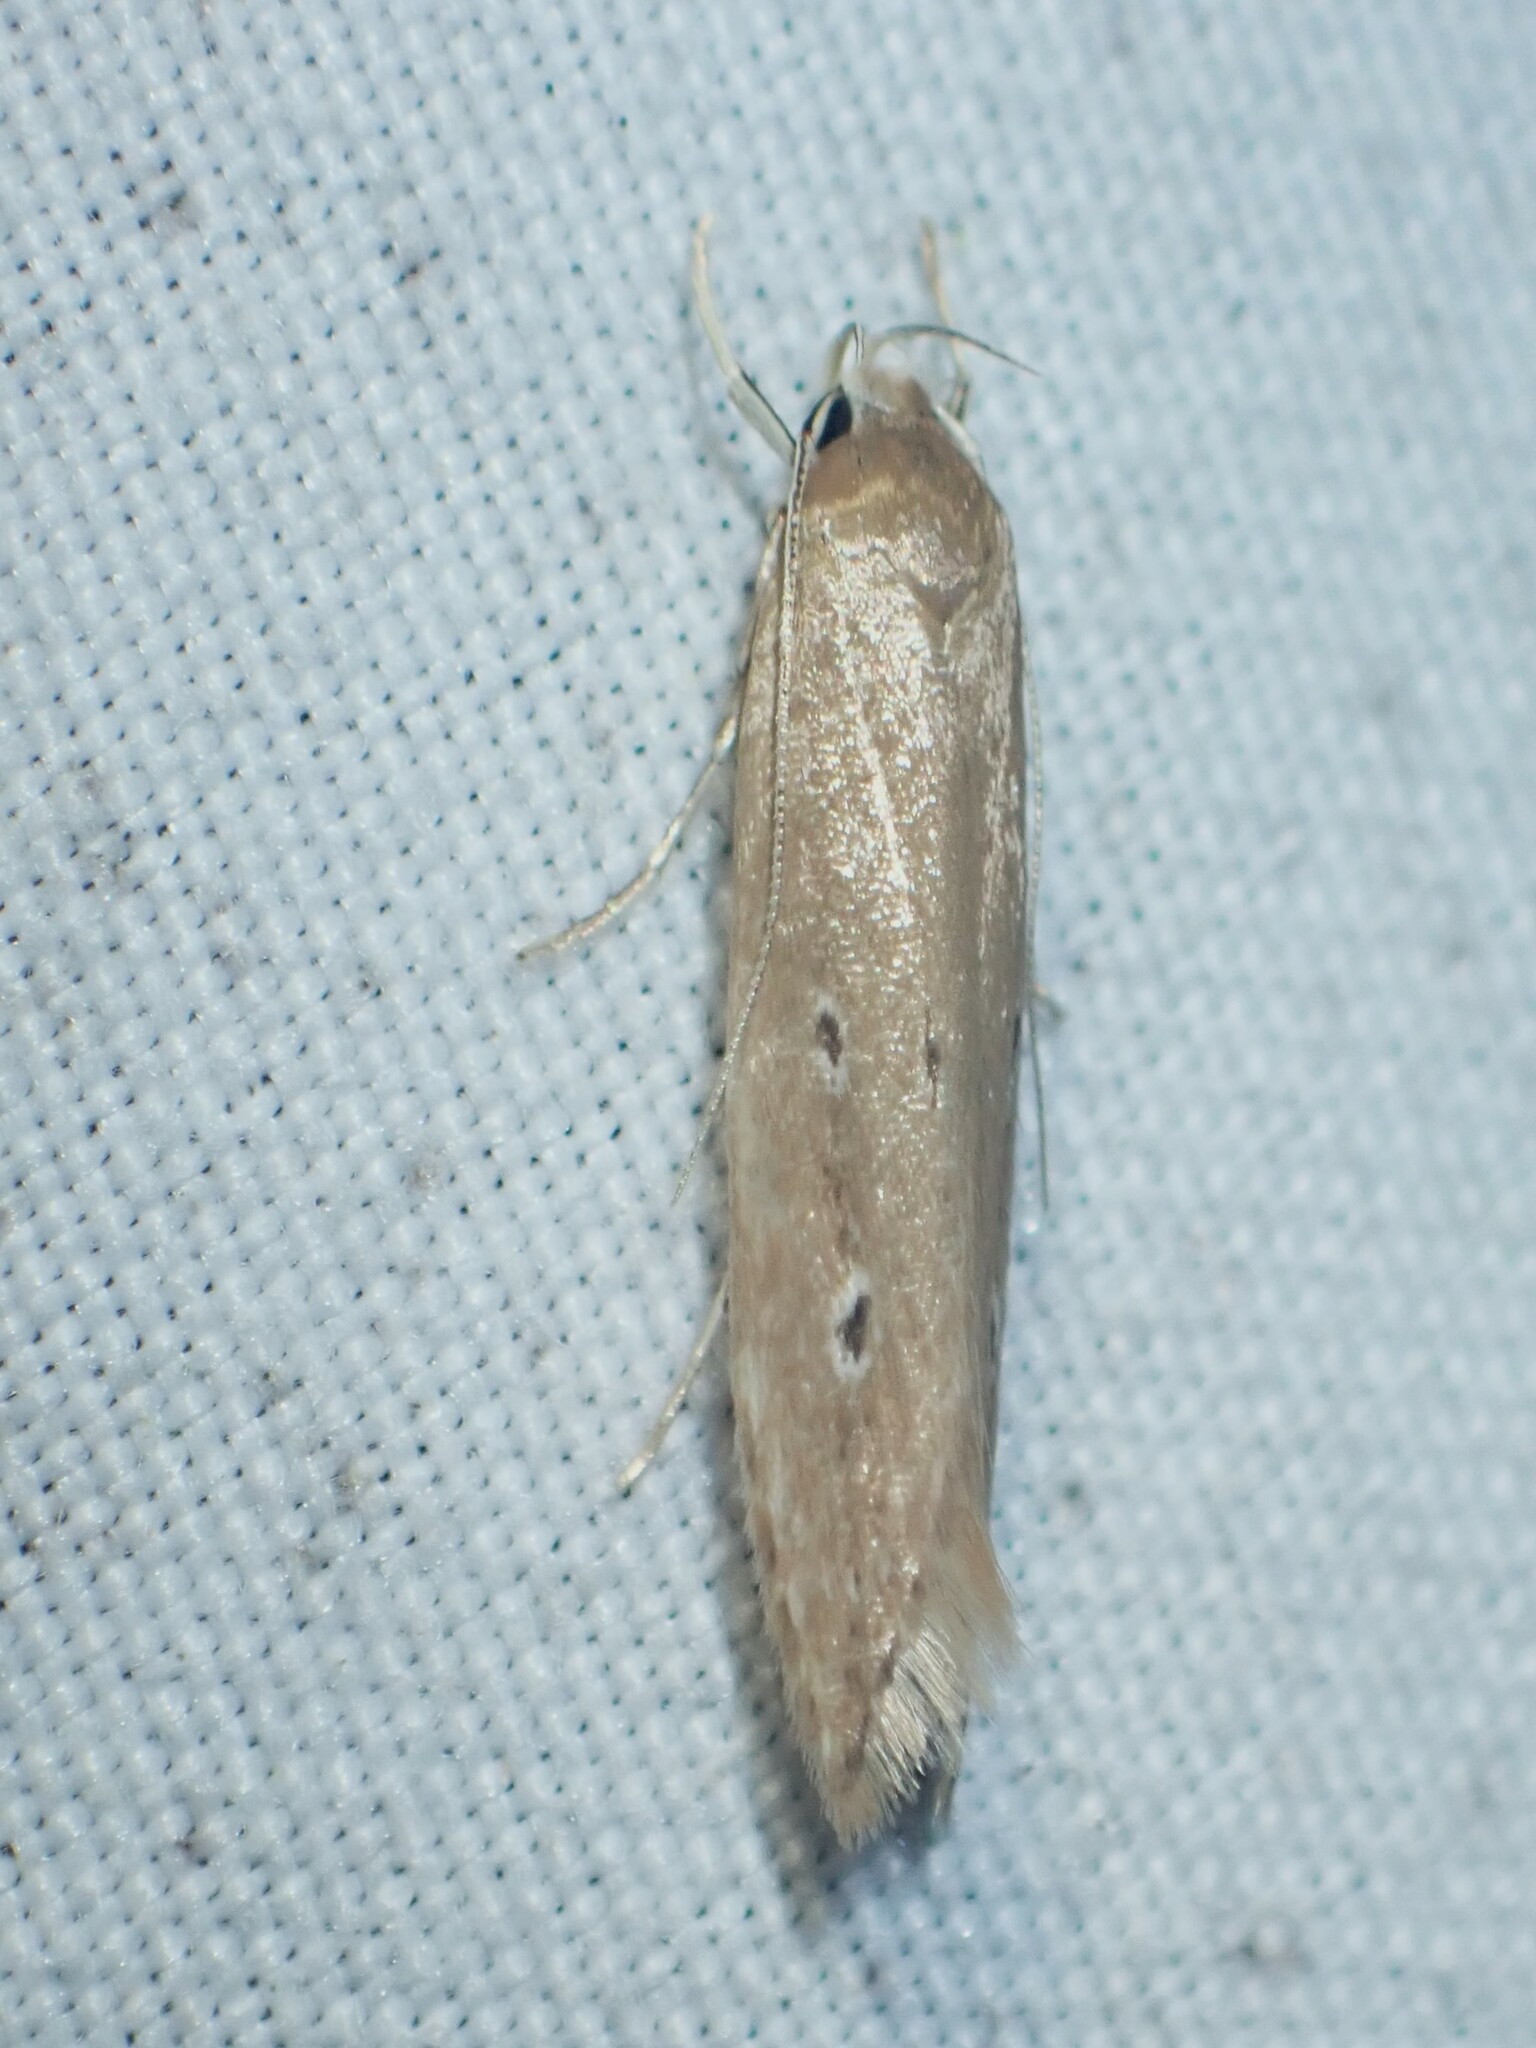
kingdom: Animalia
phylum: Arthropoda
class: Insecta
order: Lepidoptera
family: Cosmopterigidae
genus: Limnaecia
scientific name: Limnaecia phragmitella
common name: Bulrush cosmet
